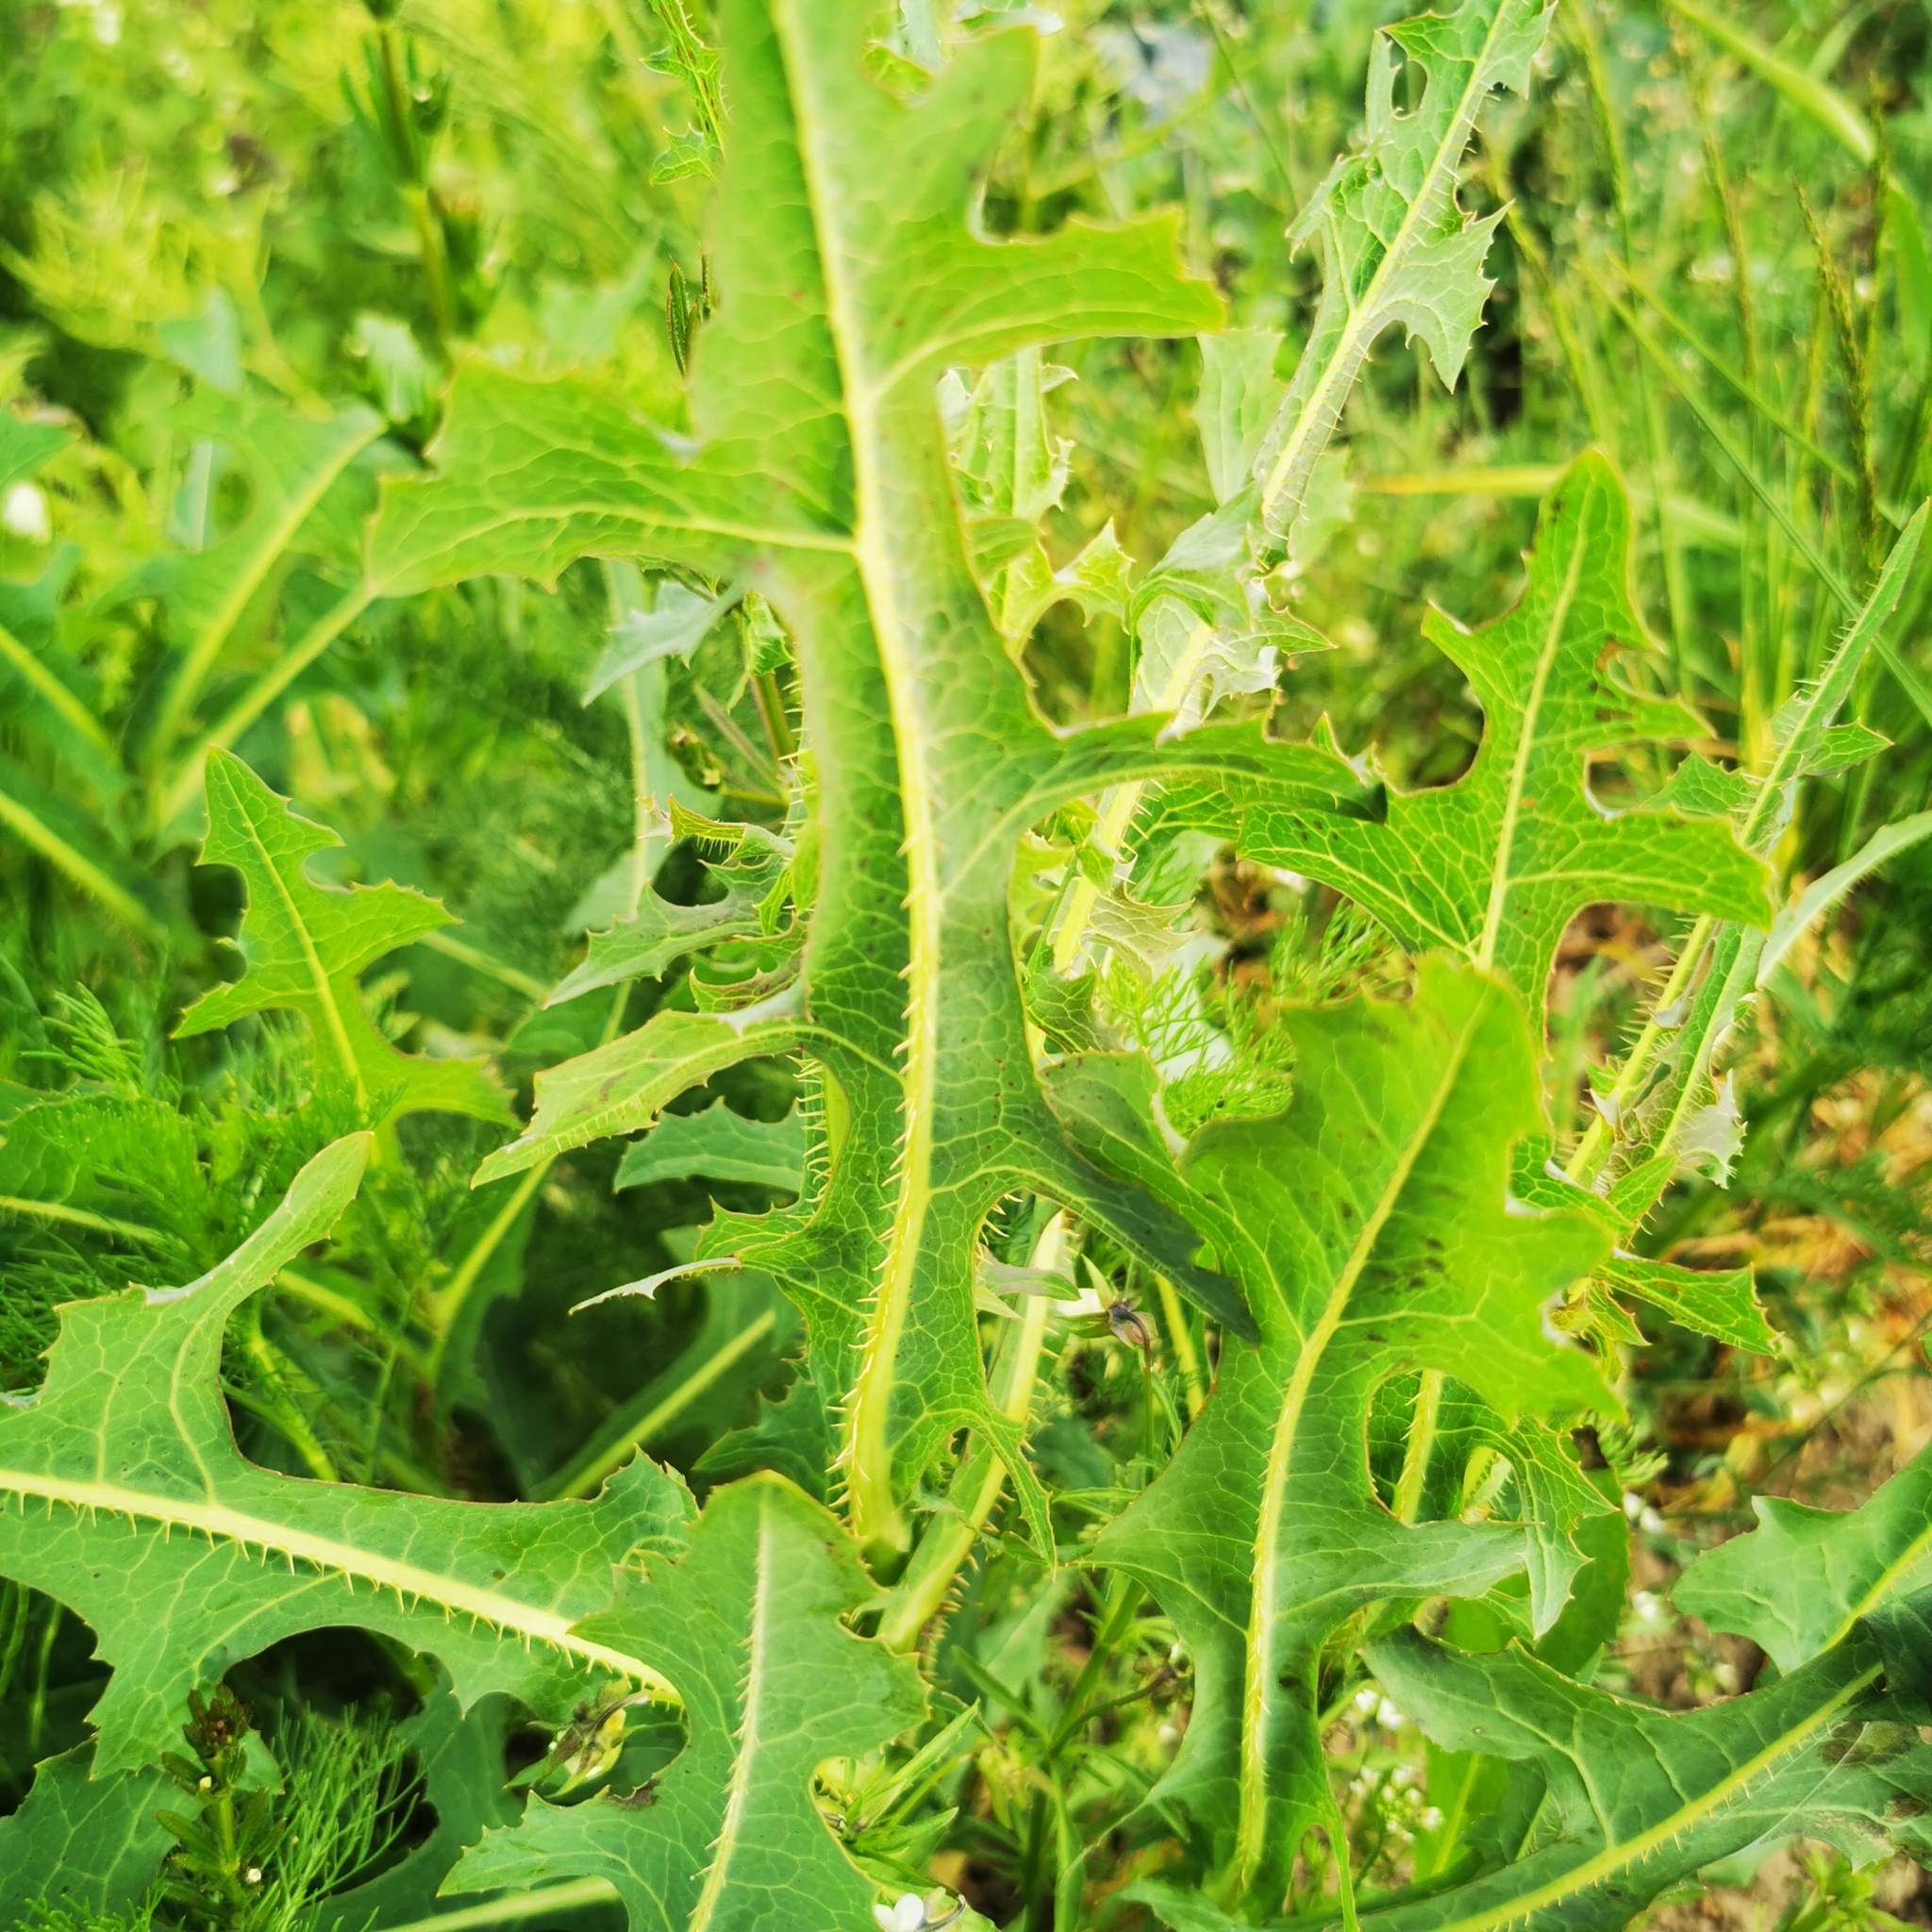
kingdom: Plantae
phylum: Tracheophyta
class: Magnoliopsida
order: Asterales
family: Asteraceae
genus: Lactuca
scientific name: Lactuca serriola
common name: Prickly lettuce
